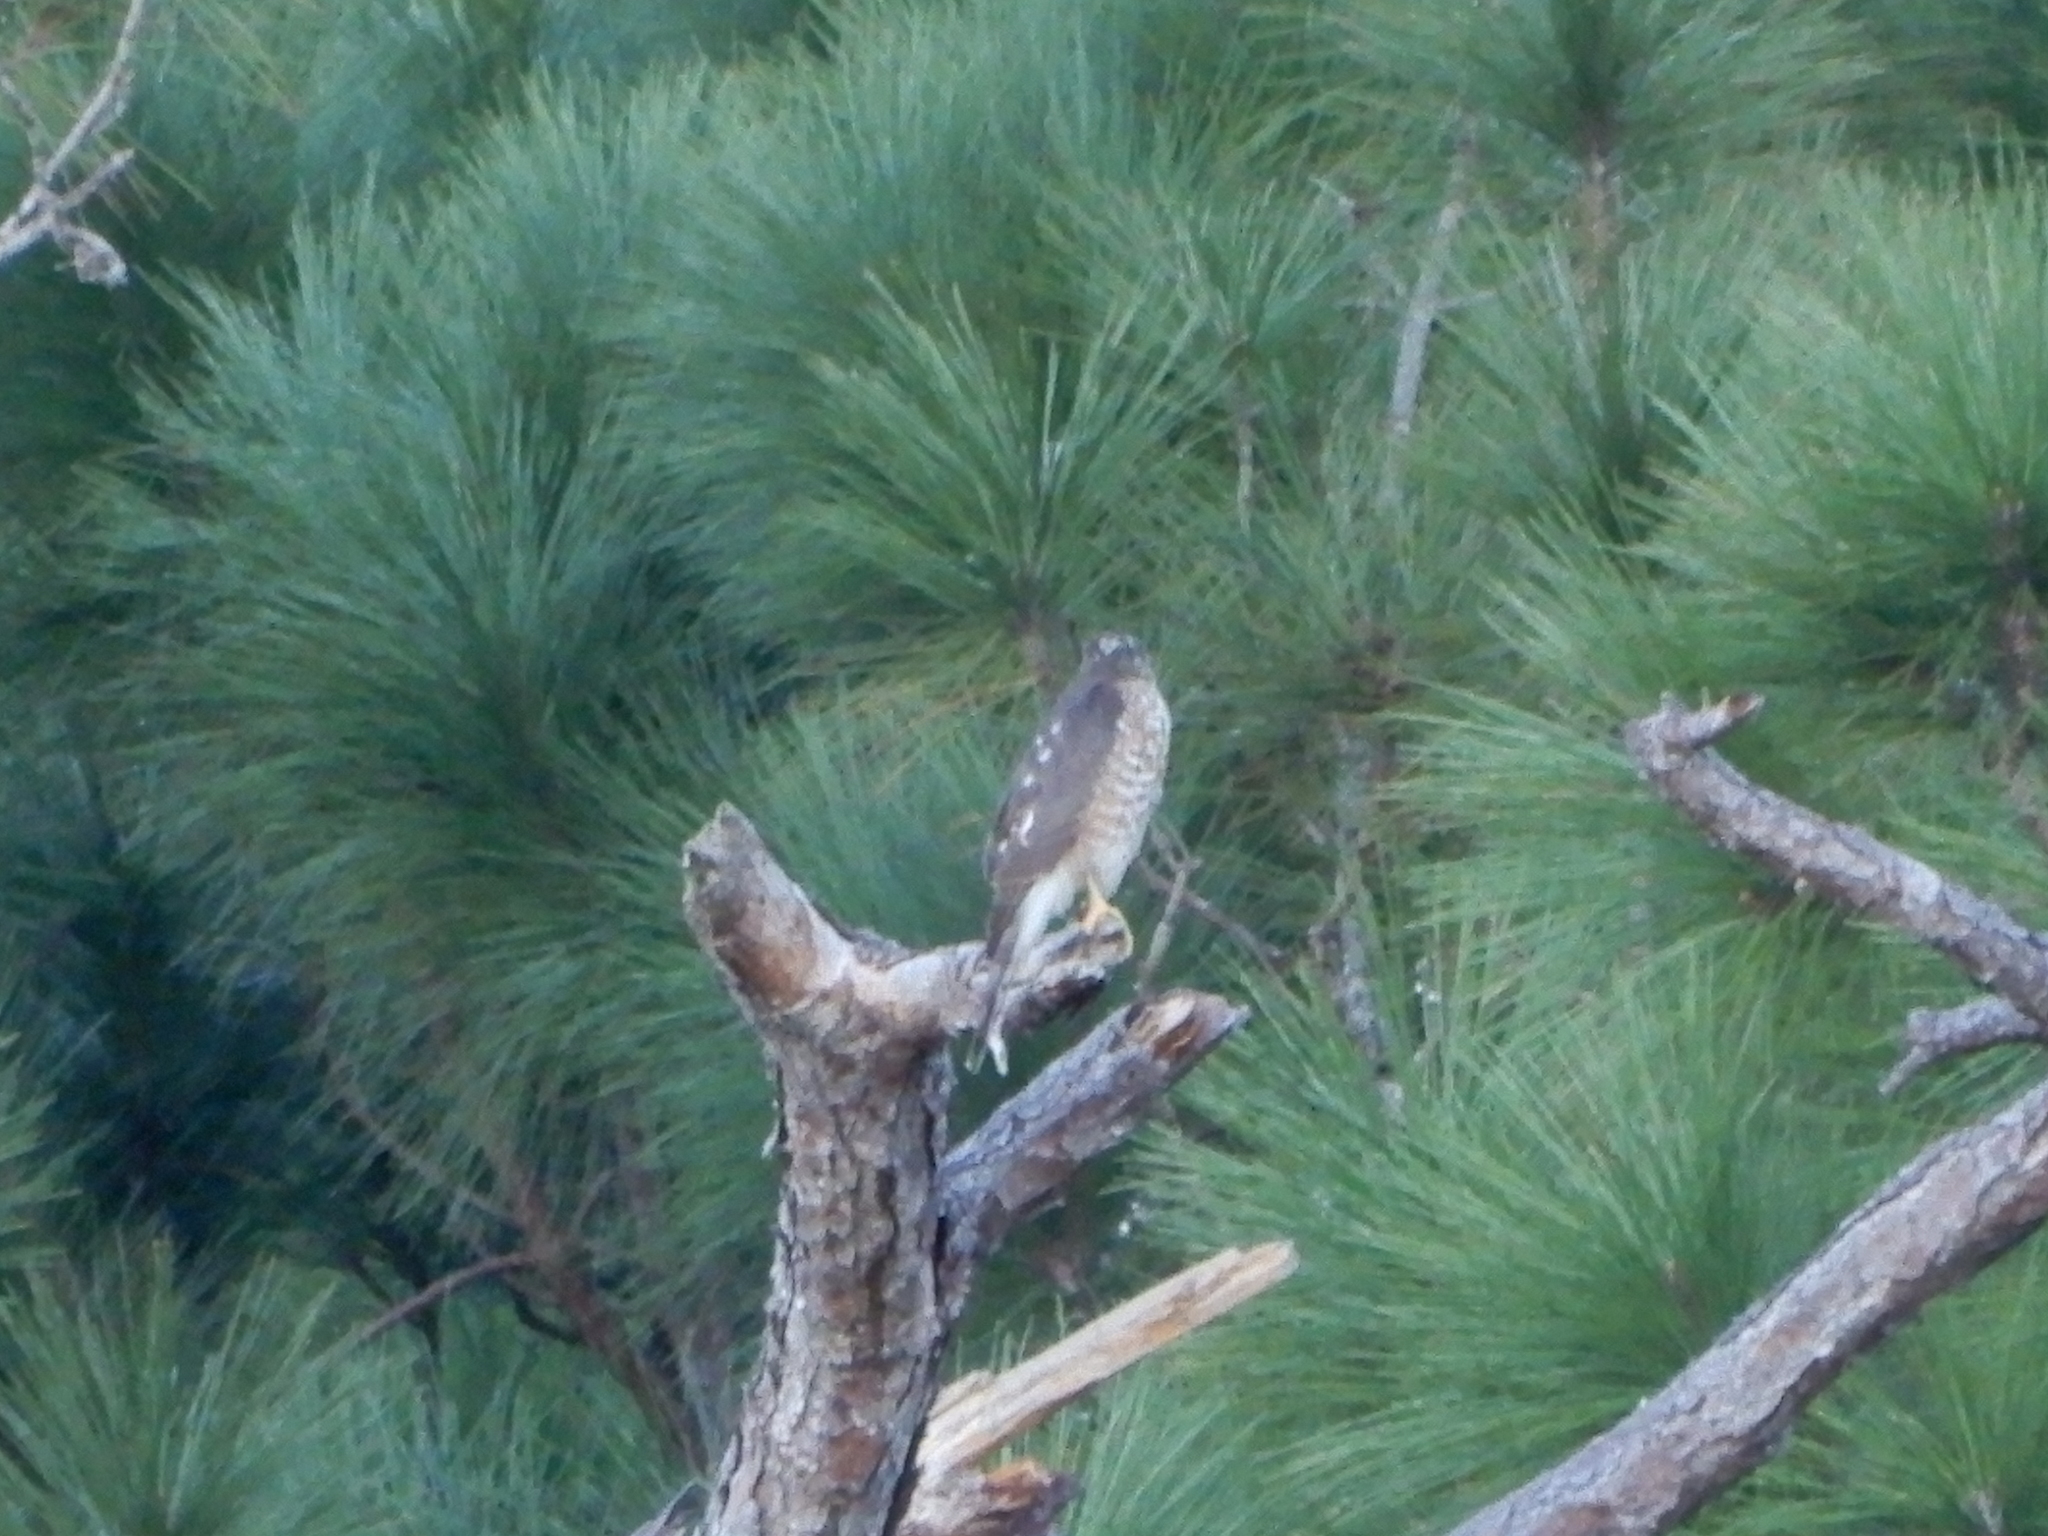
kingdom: Animalia
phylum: Chordata
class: Aves
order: Accipitriformes
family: Accipitridae
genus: Accipiter
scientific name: Accipiter striatus
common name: Sharp-shinned hawk
